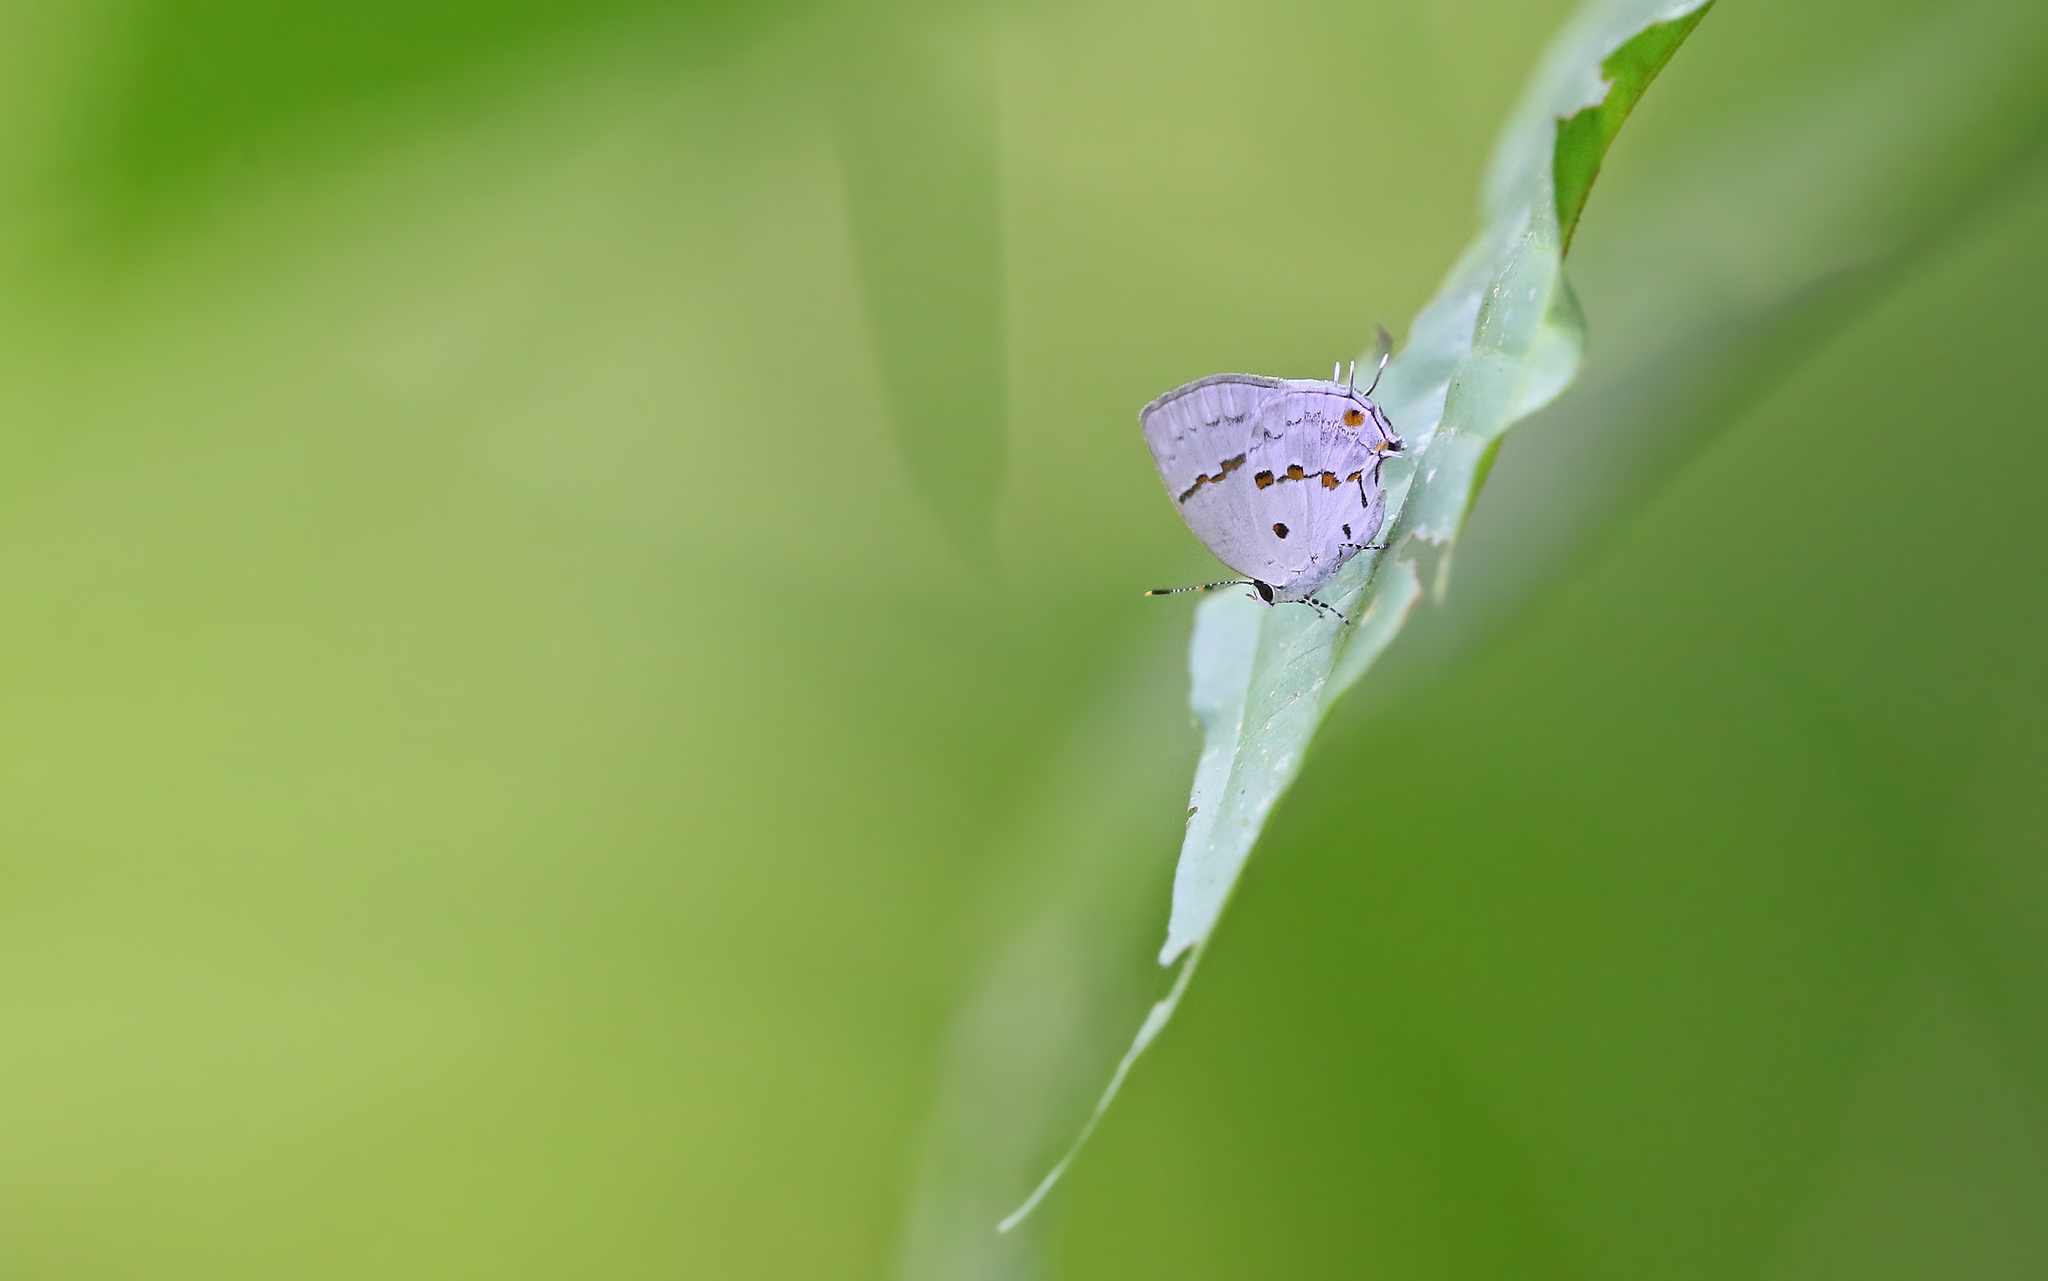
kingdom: Animalia
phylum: Arthropoda
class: Insecta
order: Lepidoptera
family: Lycaenidae
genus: Thecla
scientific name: Thecla celmus
